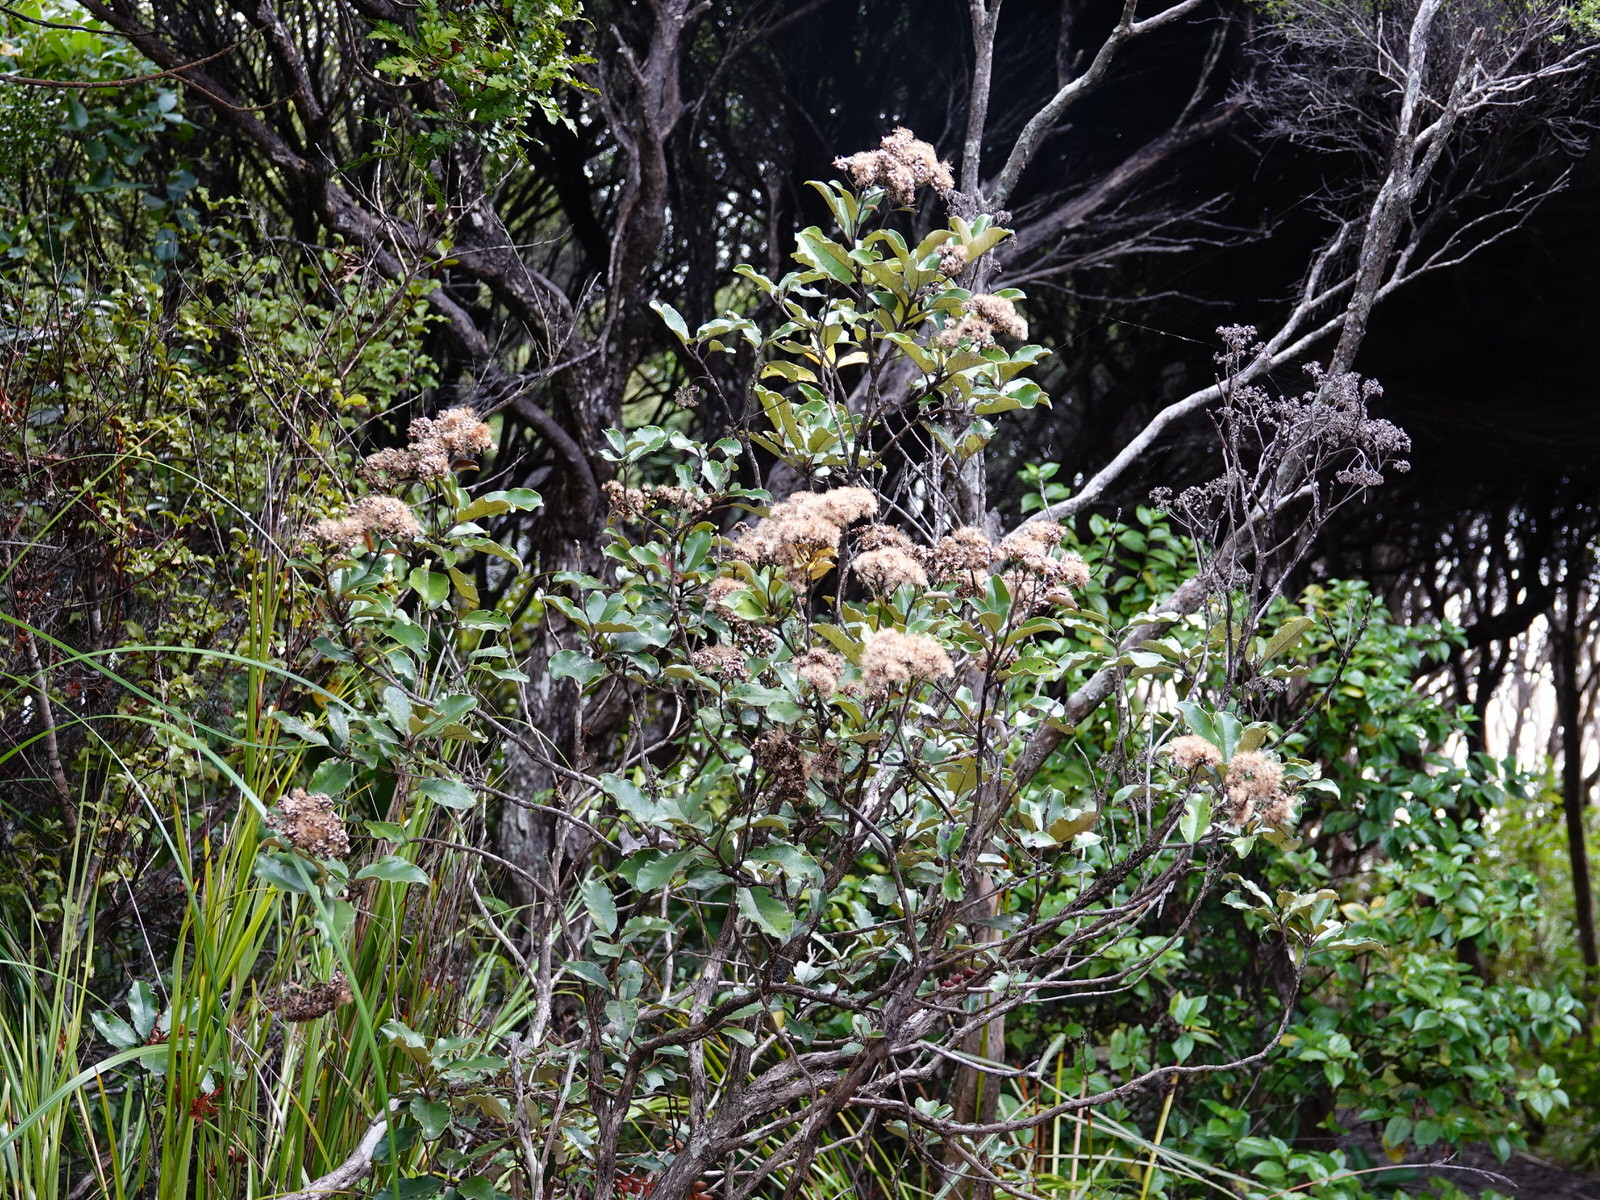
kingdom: Plantae
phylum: Tracheophyta
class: Magnoliopsida
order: Asterales
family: Asteraceae
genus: Olearia
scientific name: Olearia furfuracea
